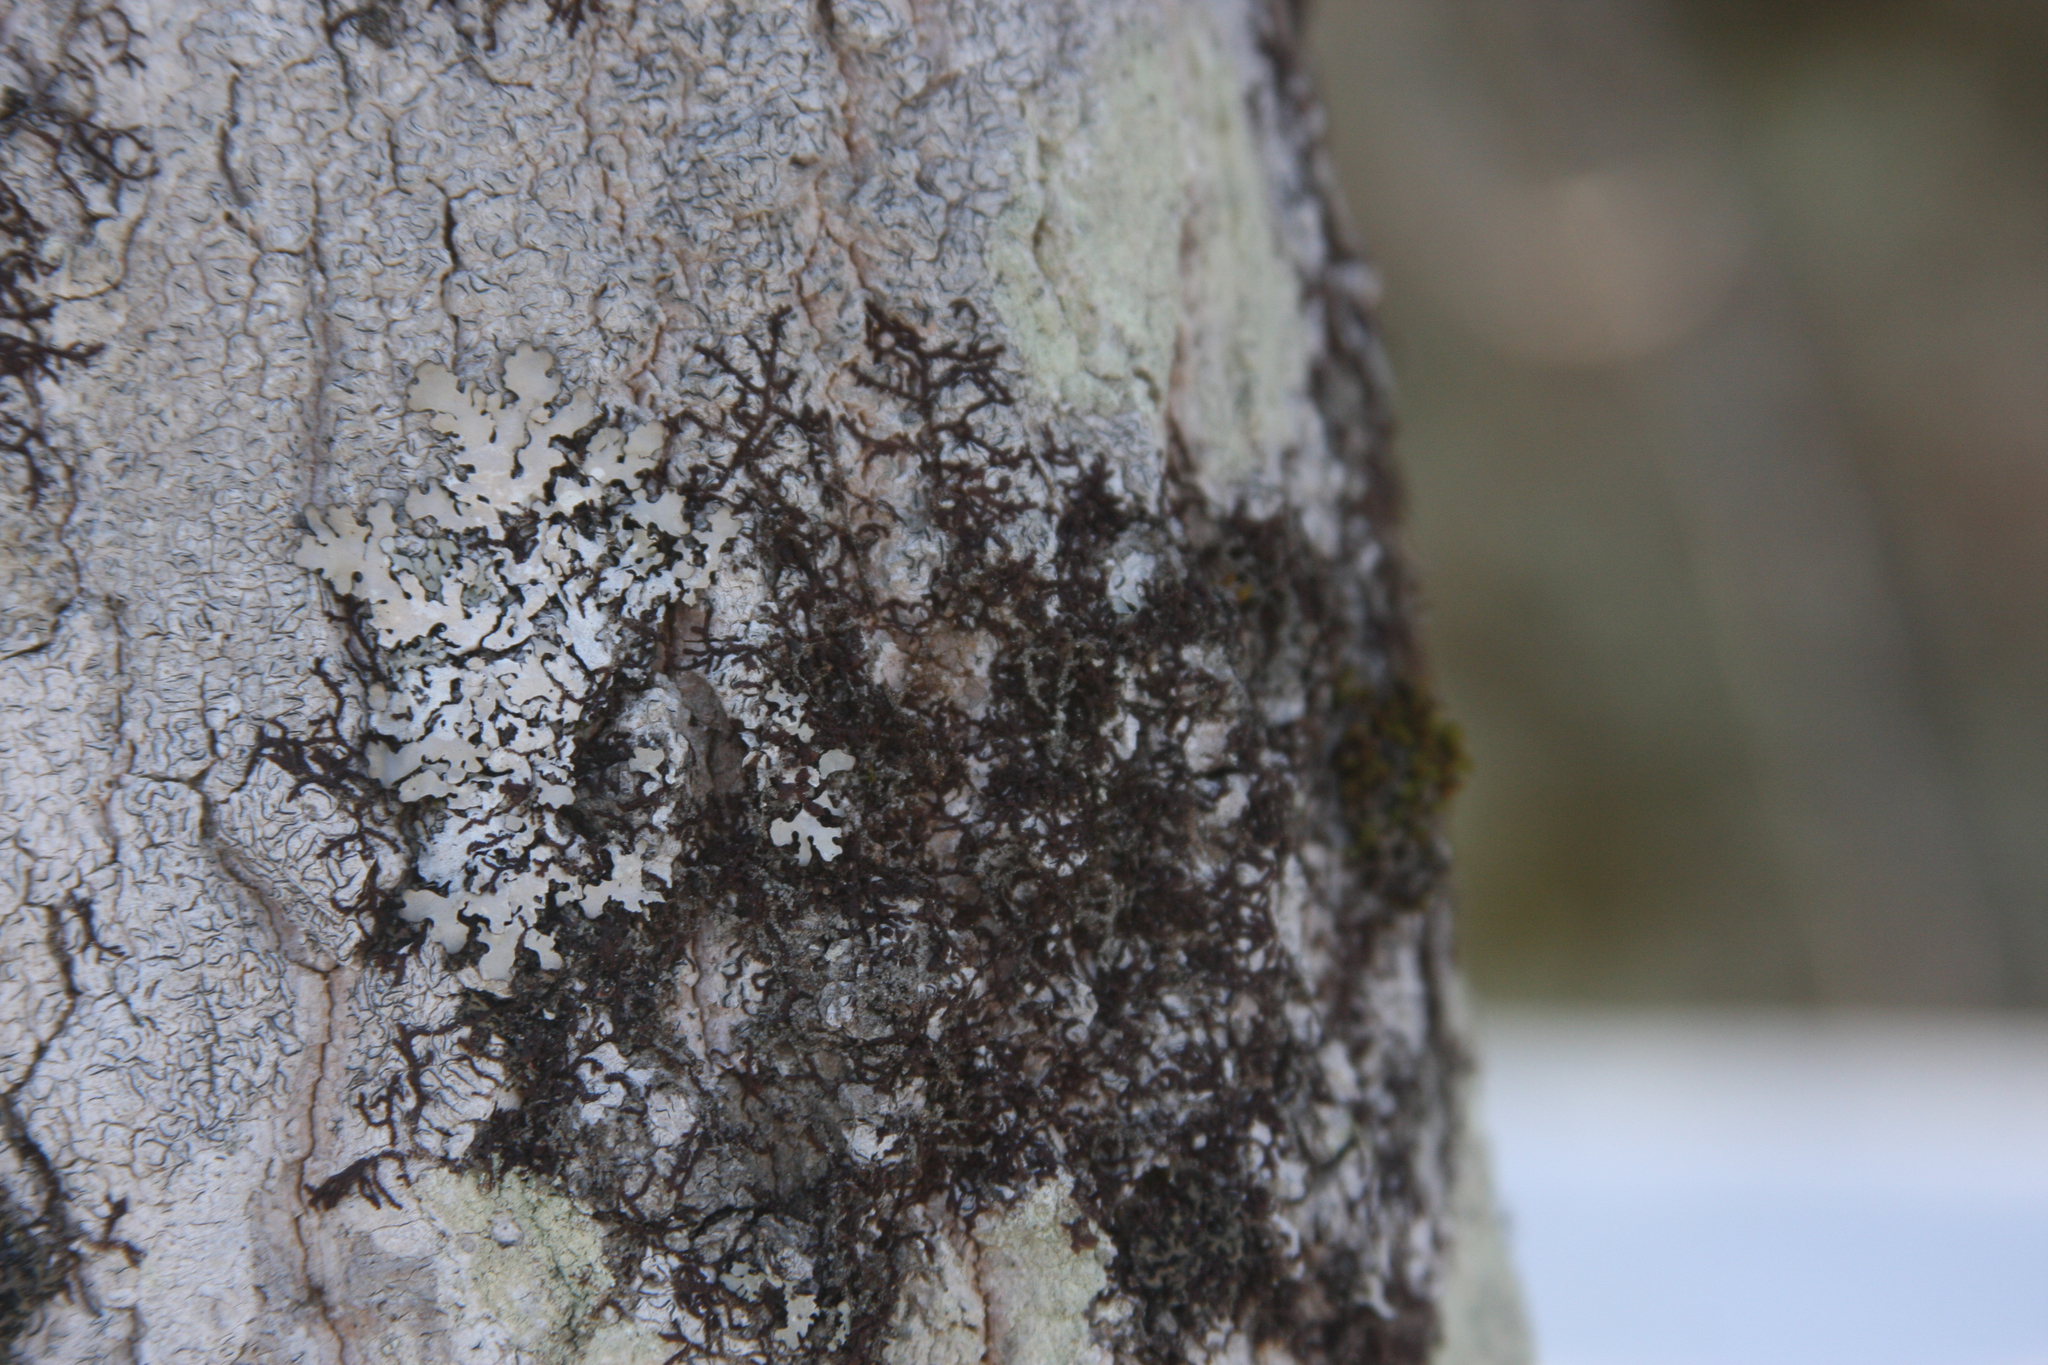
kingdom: Plantae
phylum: Marchantiophyta
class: Jungermanniopsida
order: Porellales
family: Frullaniaceae
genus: Frullania
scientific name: Frullania eboracensis
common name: New york scalewort
